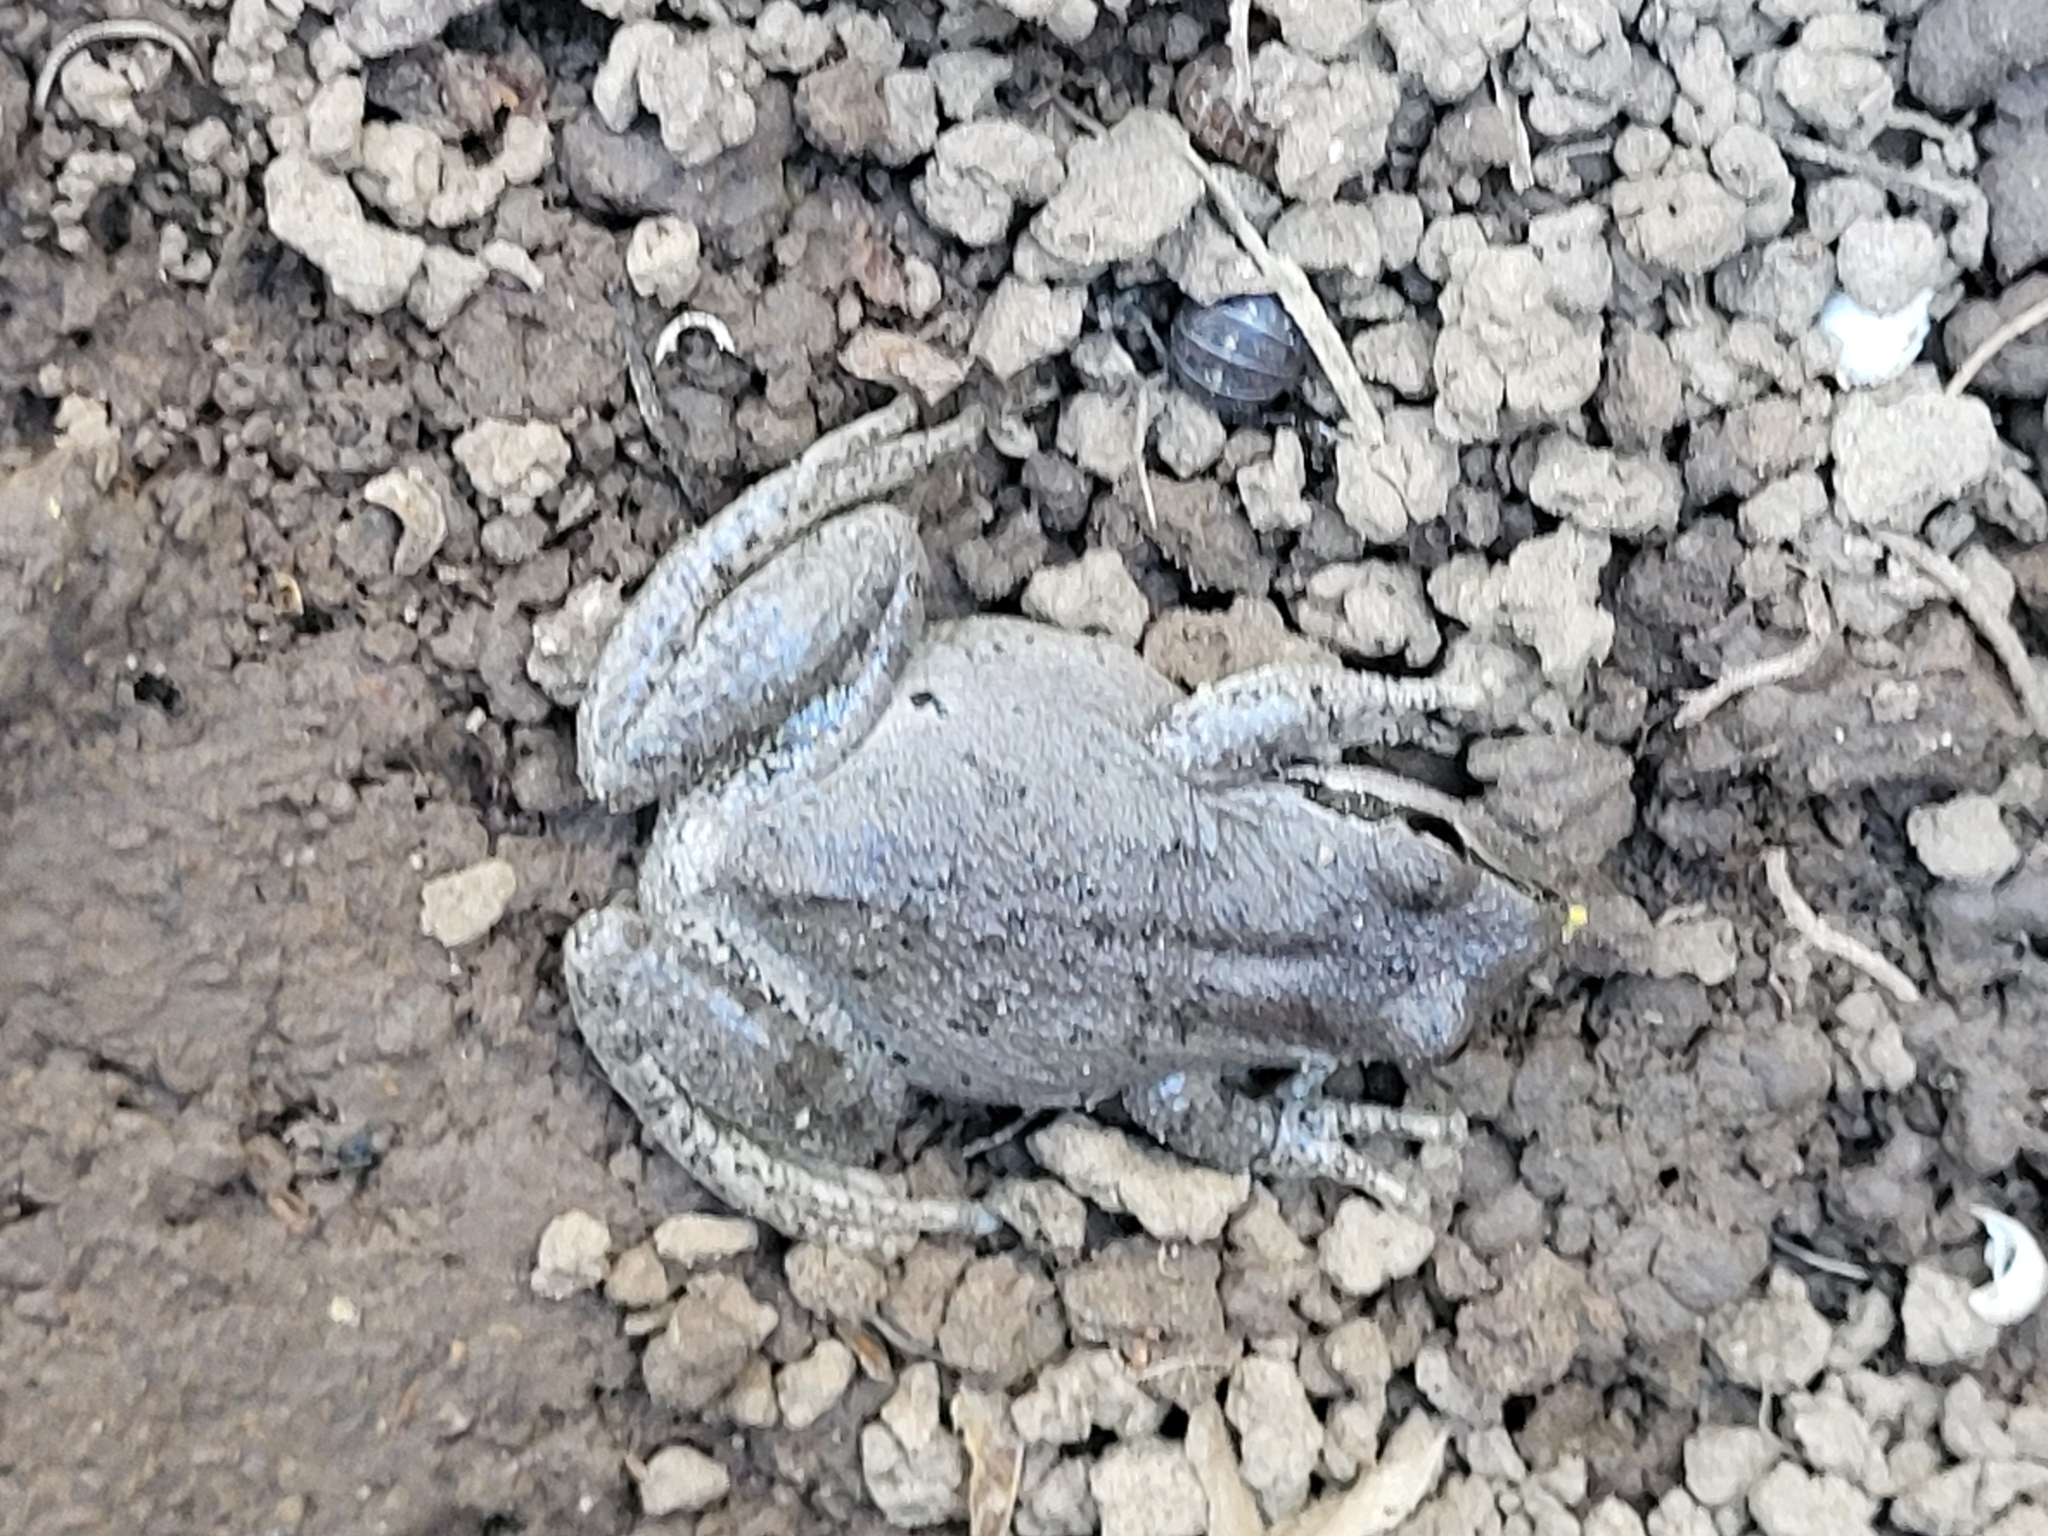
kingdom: Animalia
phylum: Chordata
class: Amphibia
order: Anura
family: Hylidae
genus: Pseudacris
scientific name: Pseudacris regilla
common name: Pacific chorus frog
